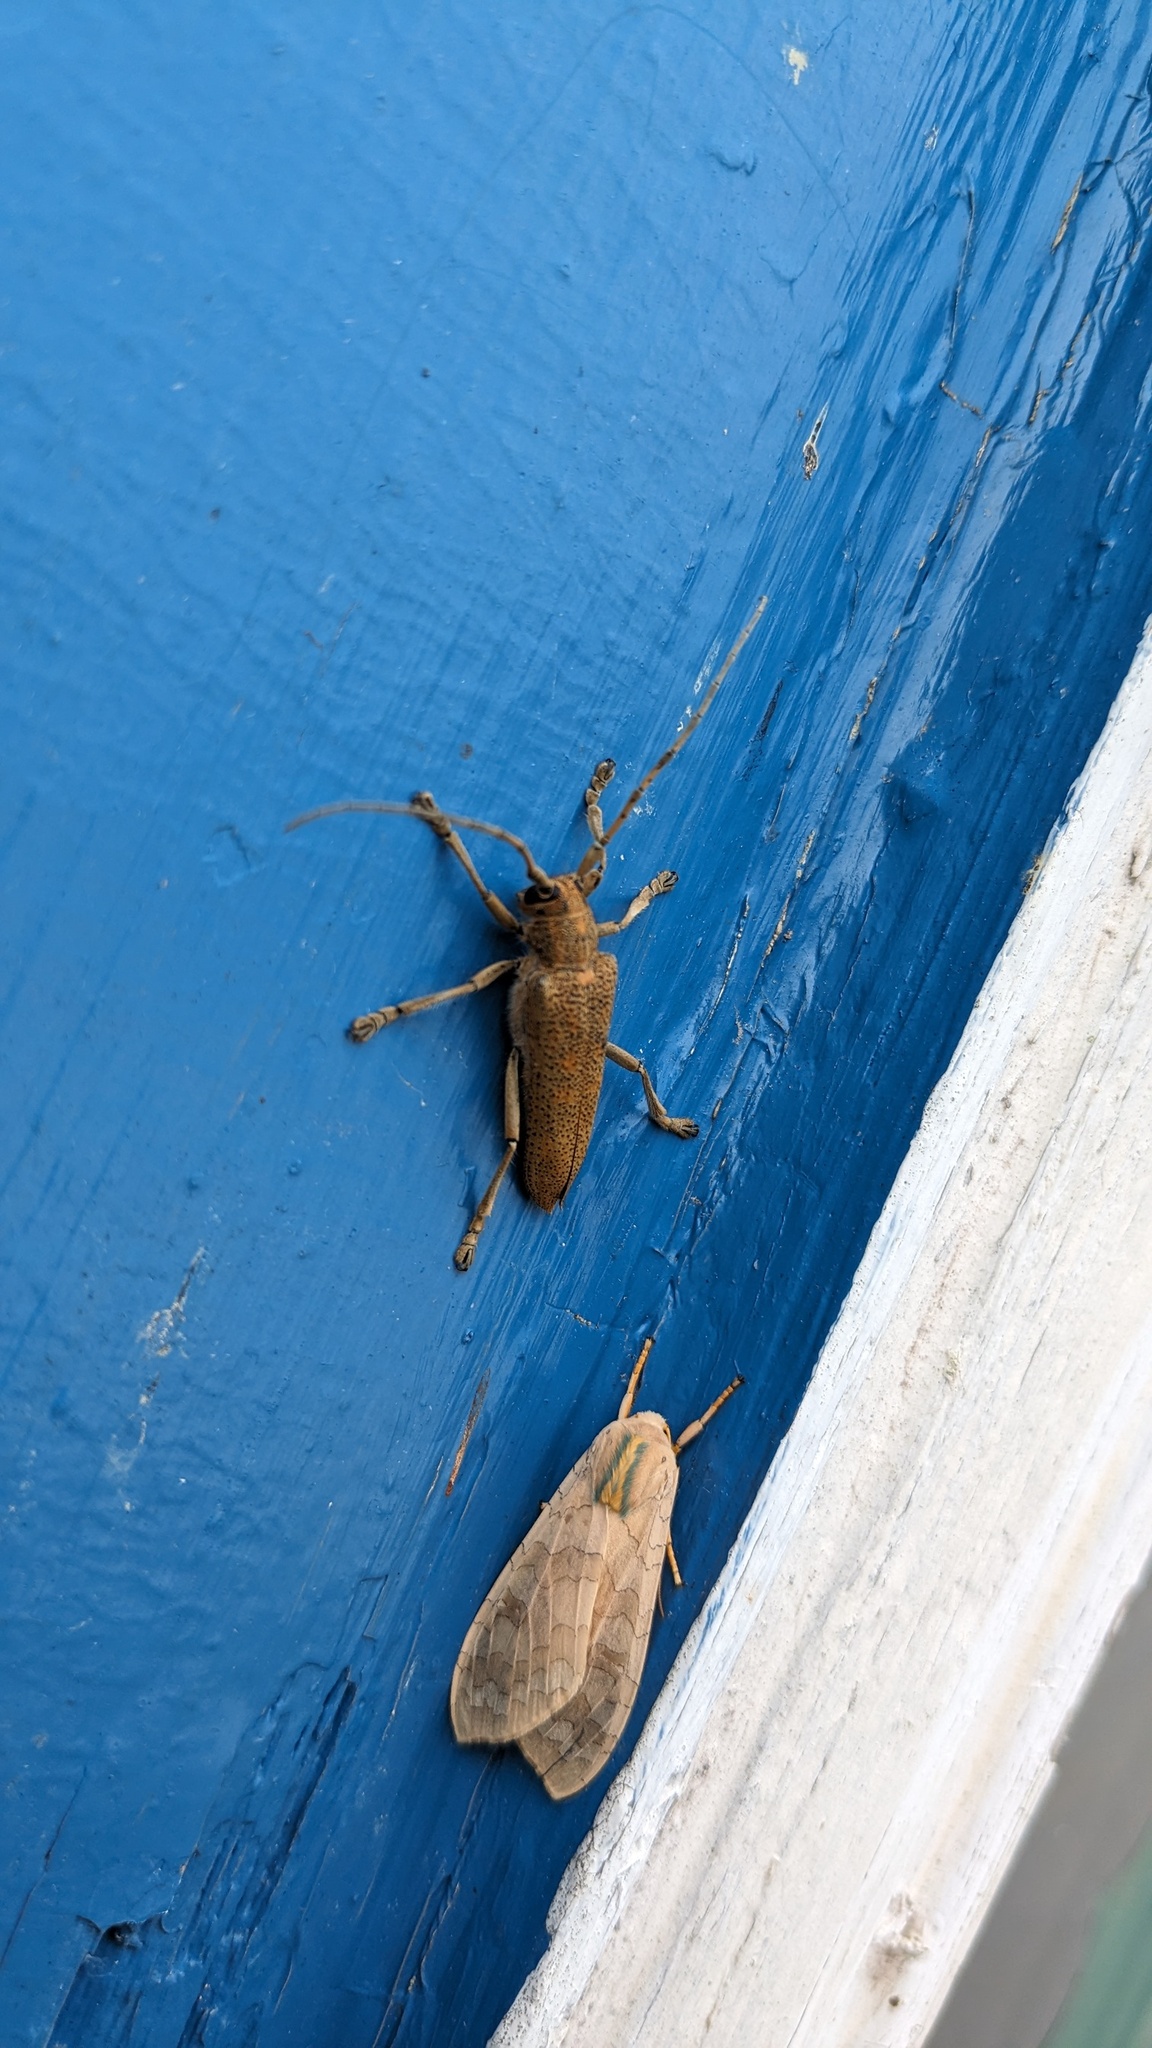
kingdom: Animalia
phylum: Arthropoda
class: Insecta
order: Lepidoptera
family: Erebidae
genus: Halysidota
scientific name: Halysidota tessellaris
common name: Banded tussock moth
